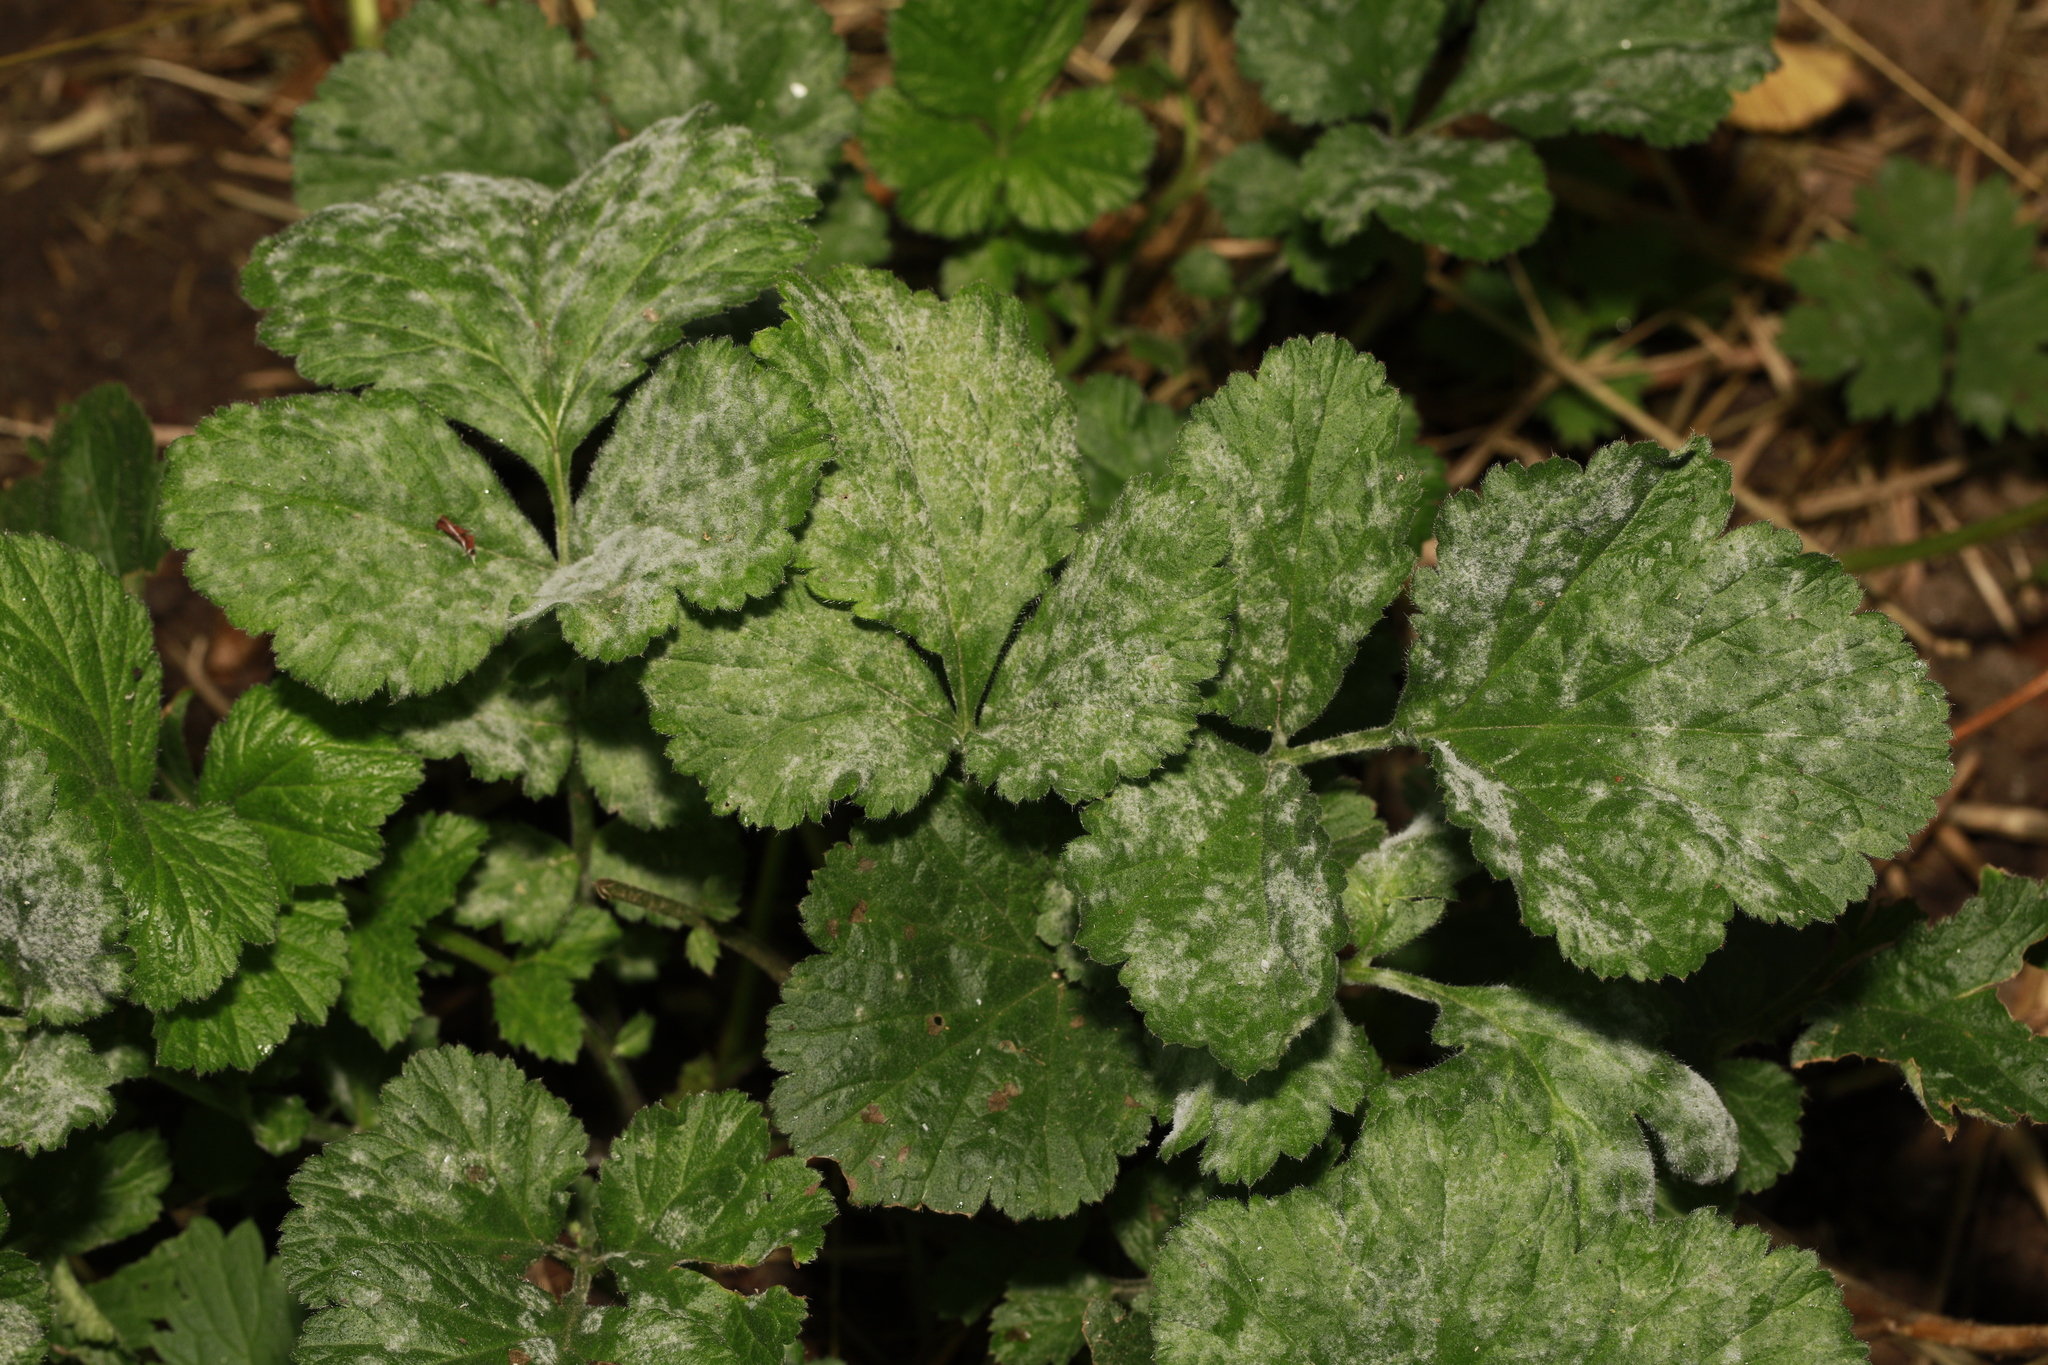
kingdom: Plantae
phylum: Tracheophyta
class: Magnoliopsida
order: Rosales
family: Rosaceae
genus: Geum
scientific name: Geum urbanum
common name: Wood avens
